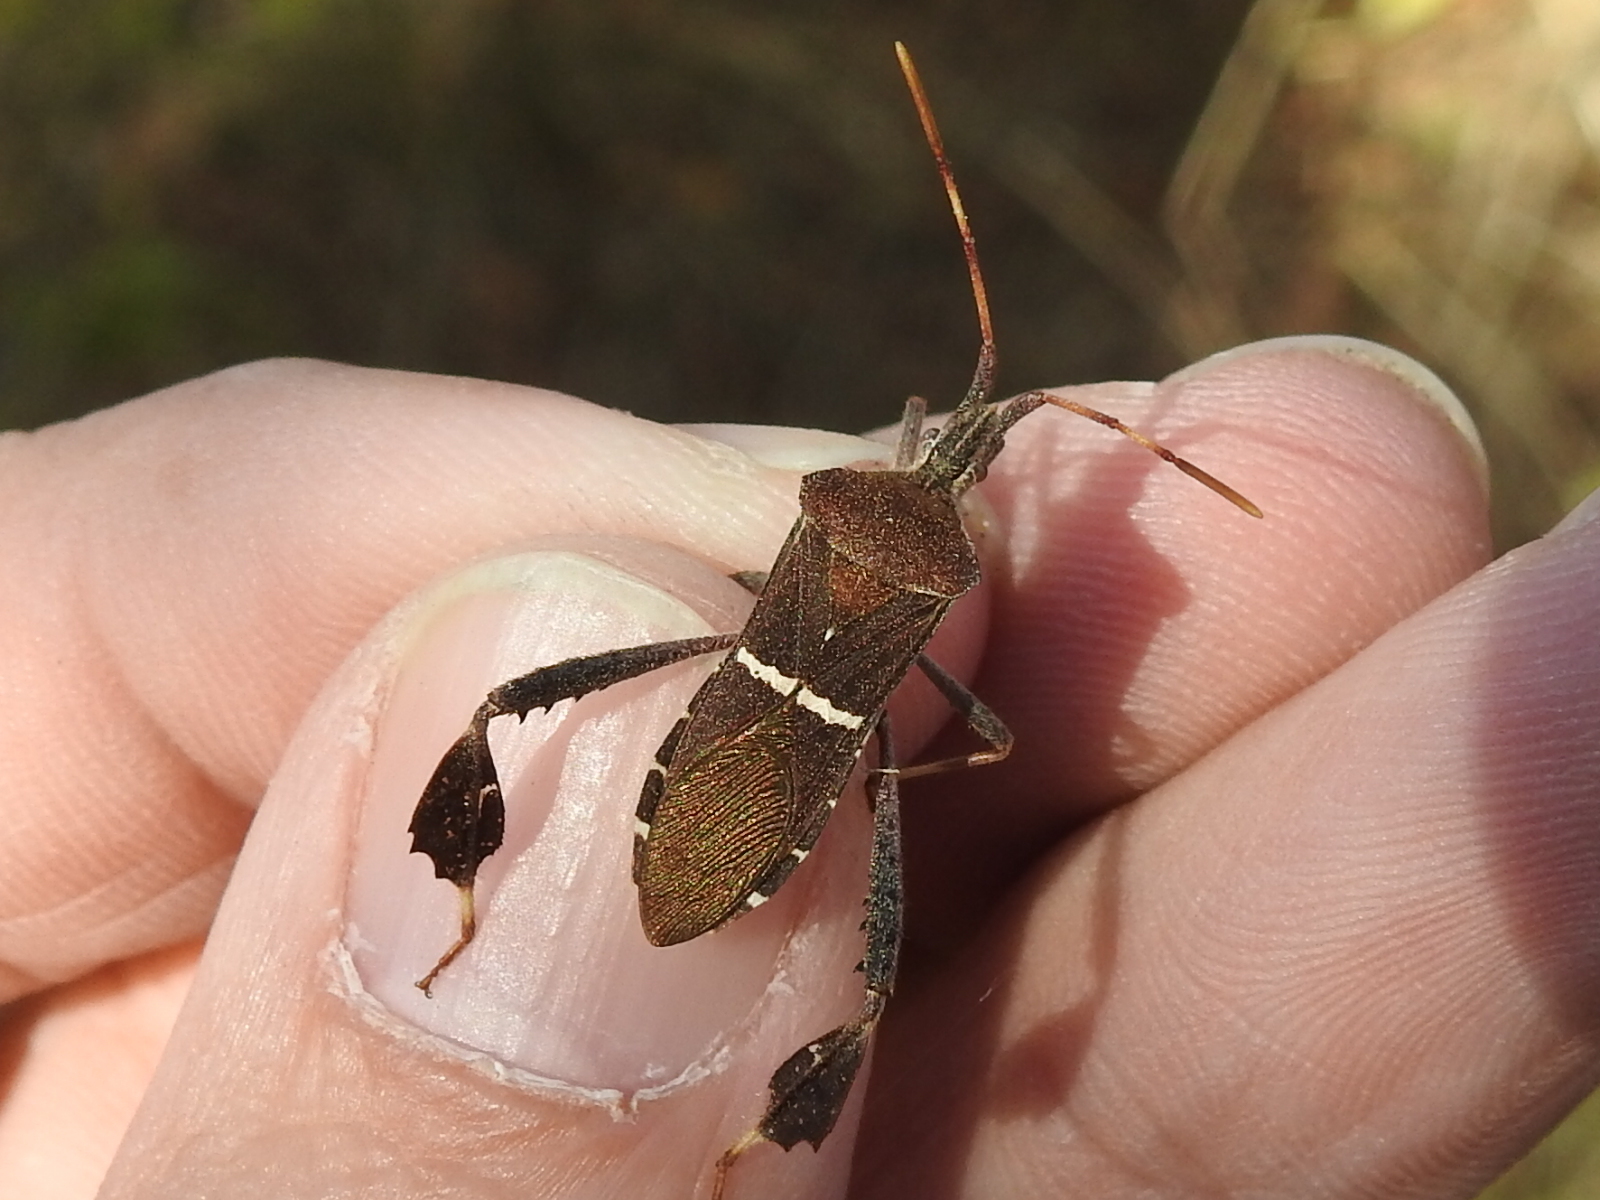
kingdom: Animalia
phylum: Arthropoda
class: Insecta
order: Hemiptera
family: Coreidae
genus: Leptoglossus
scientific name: Leptoglossus phyllopus
